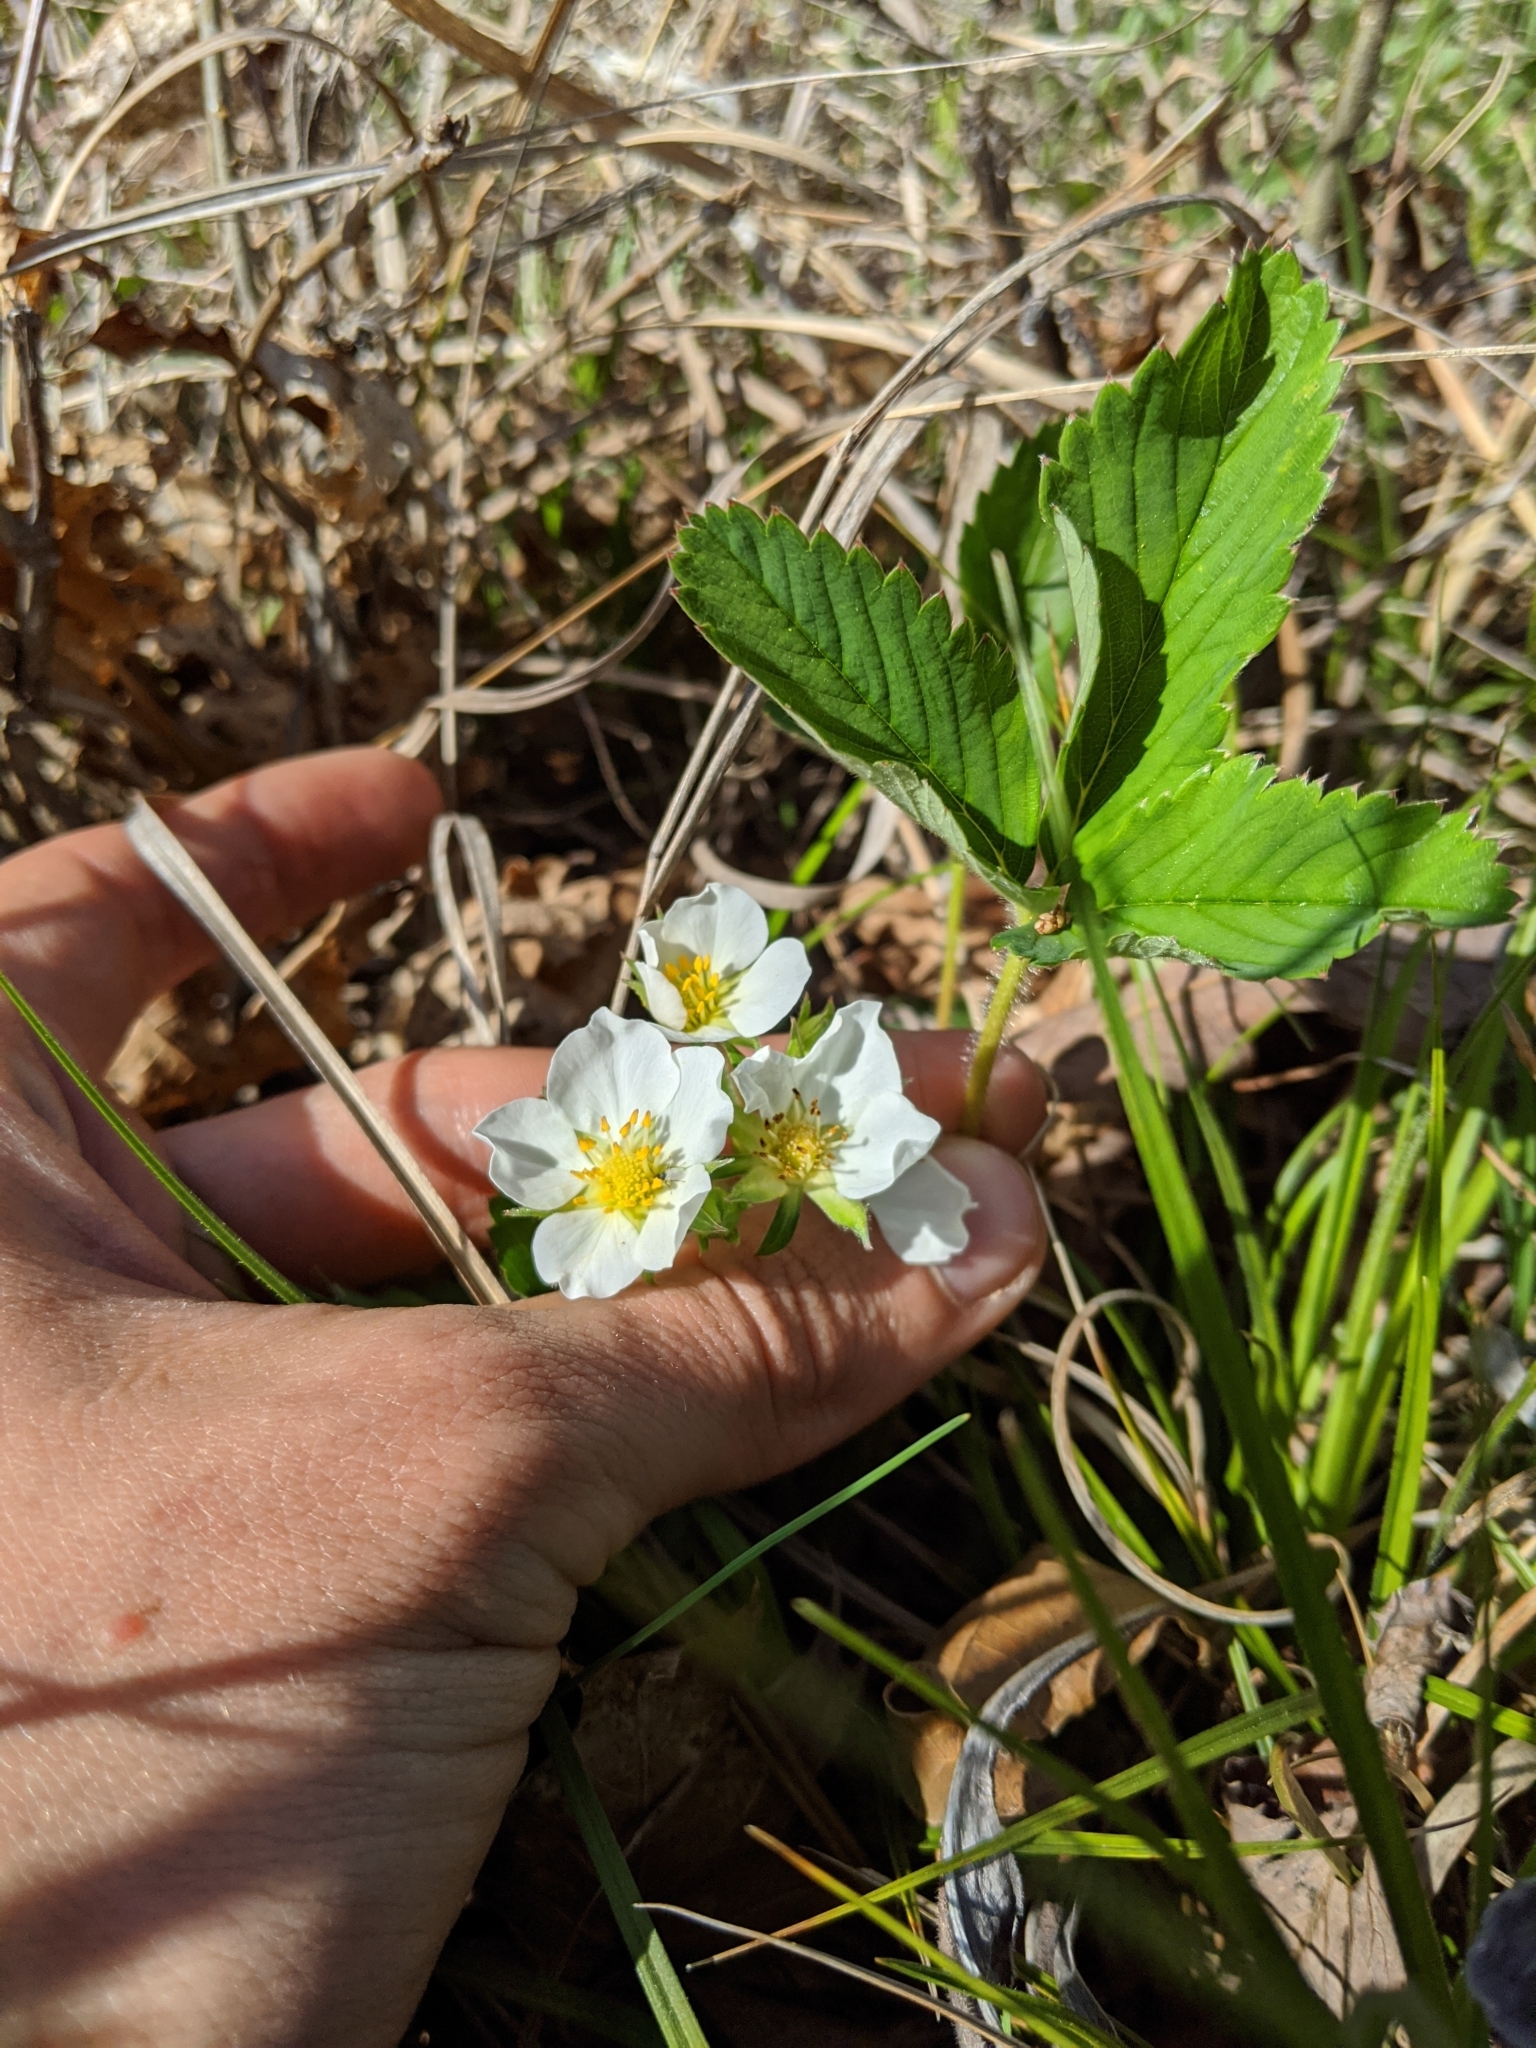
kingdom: Plantae
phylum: Tracheophyta
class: Magnoliopsida
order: Rosales
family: Rosaceae
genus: Fragaria
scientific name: Fragaria virginiana
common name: Thickleaved wild strawberry
